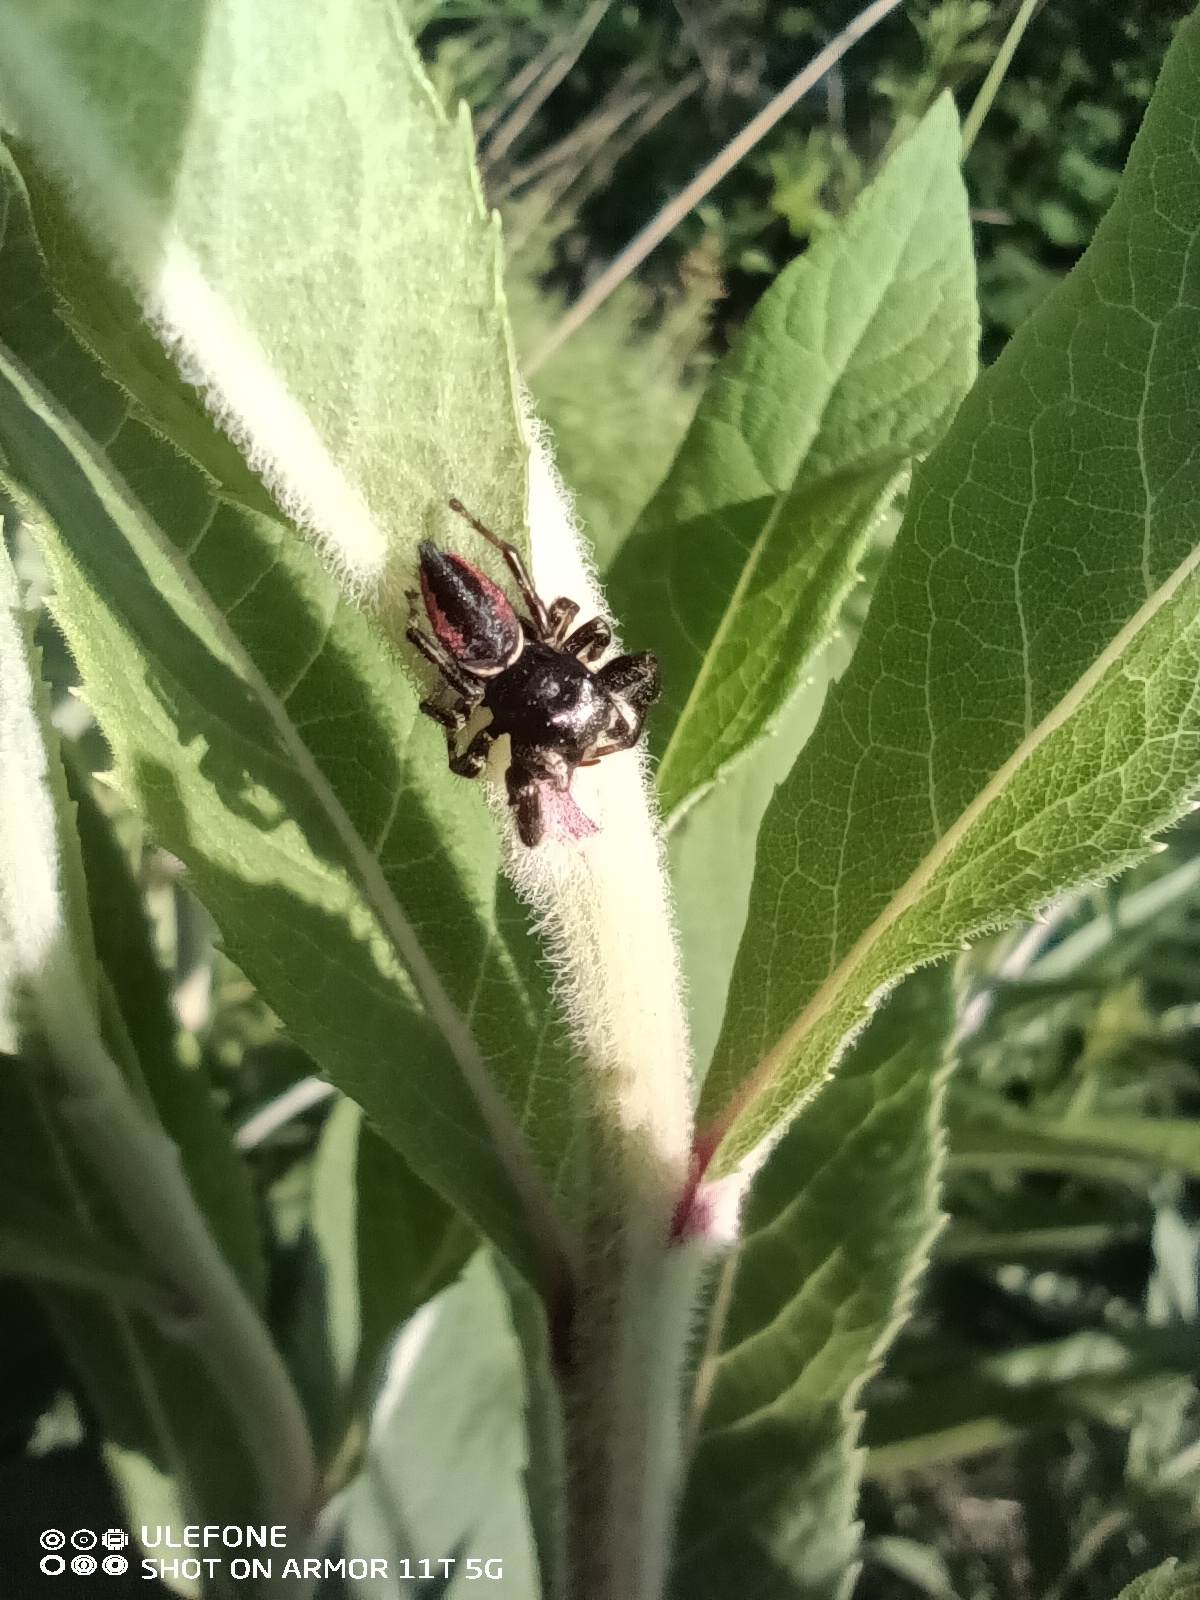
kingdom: Animalia
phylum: Arthropoda
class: Arachnida
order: Araneae
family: Salticidae
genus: Phidippus
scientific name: Phidippus clarus
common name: Brilliant jumping spider
